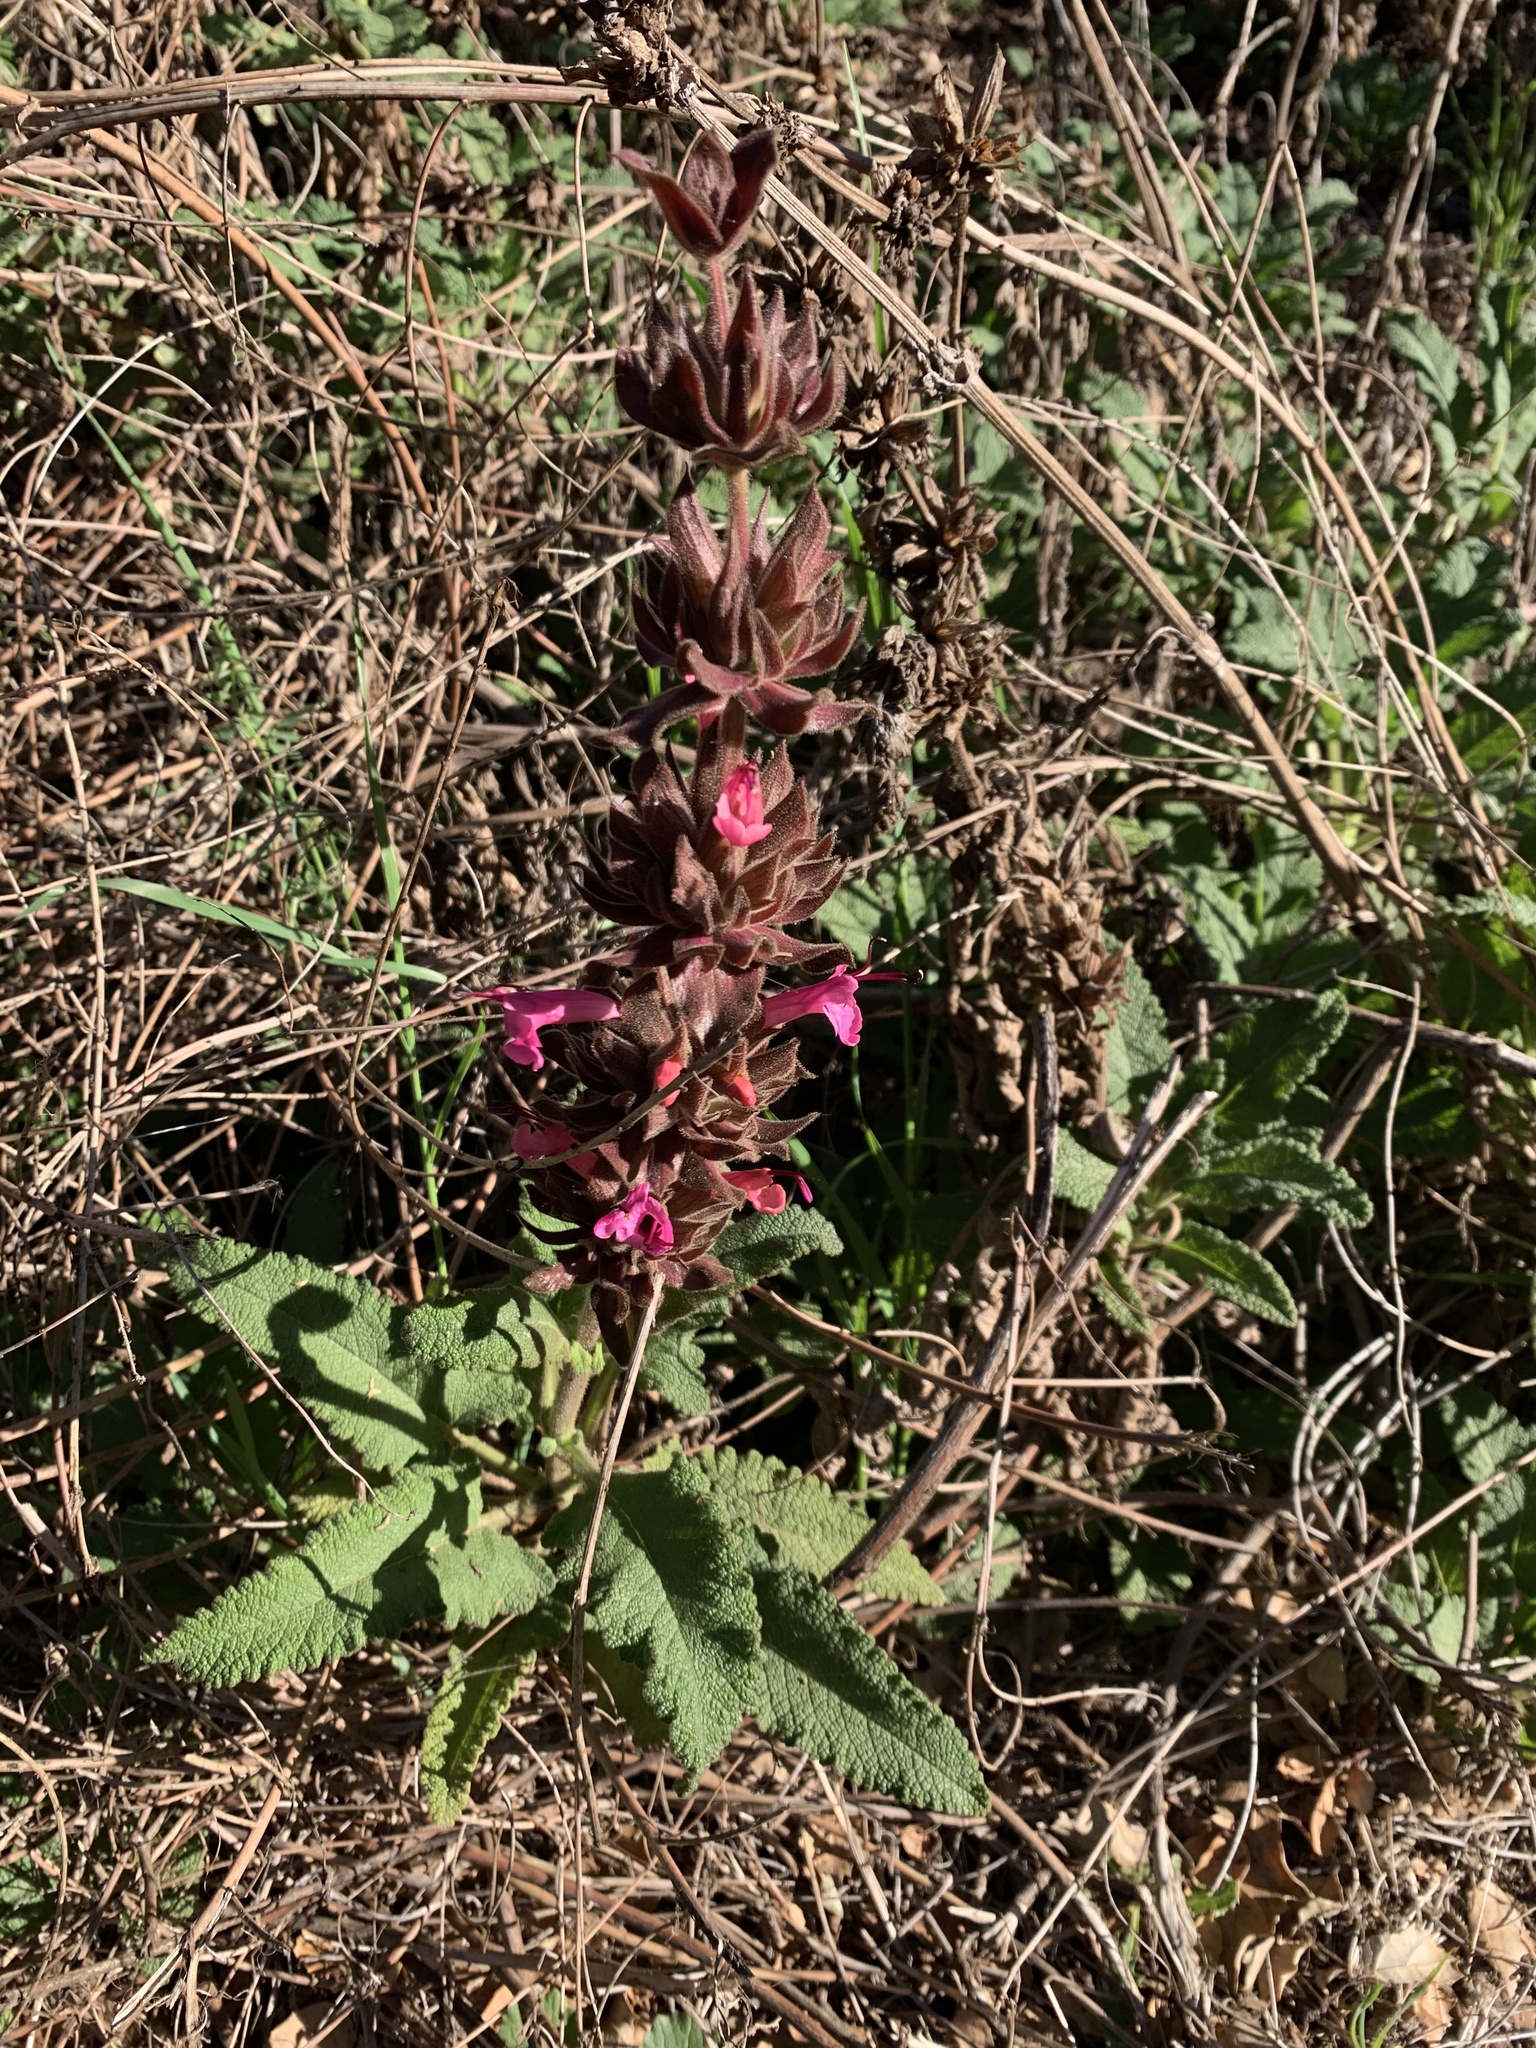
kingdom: Plantae
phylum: Tracheophyta
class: Magnoliopsida
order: Lamiales
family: Lamiaceae
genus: Salvia
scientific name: Salvia spathacea
